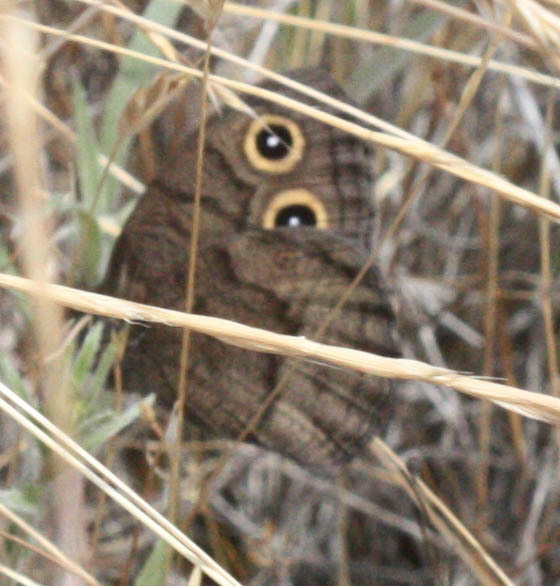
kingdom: Animalia
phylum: Arthropoda
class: Insecta
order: Lepidoptera
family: Nymphalidae
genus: Cercyonis
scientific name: Cercyonis pegala
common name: Common wood-nymph
